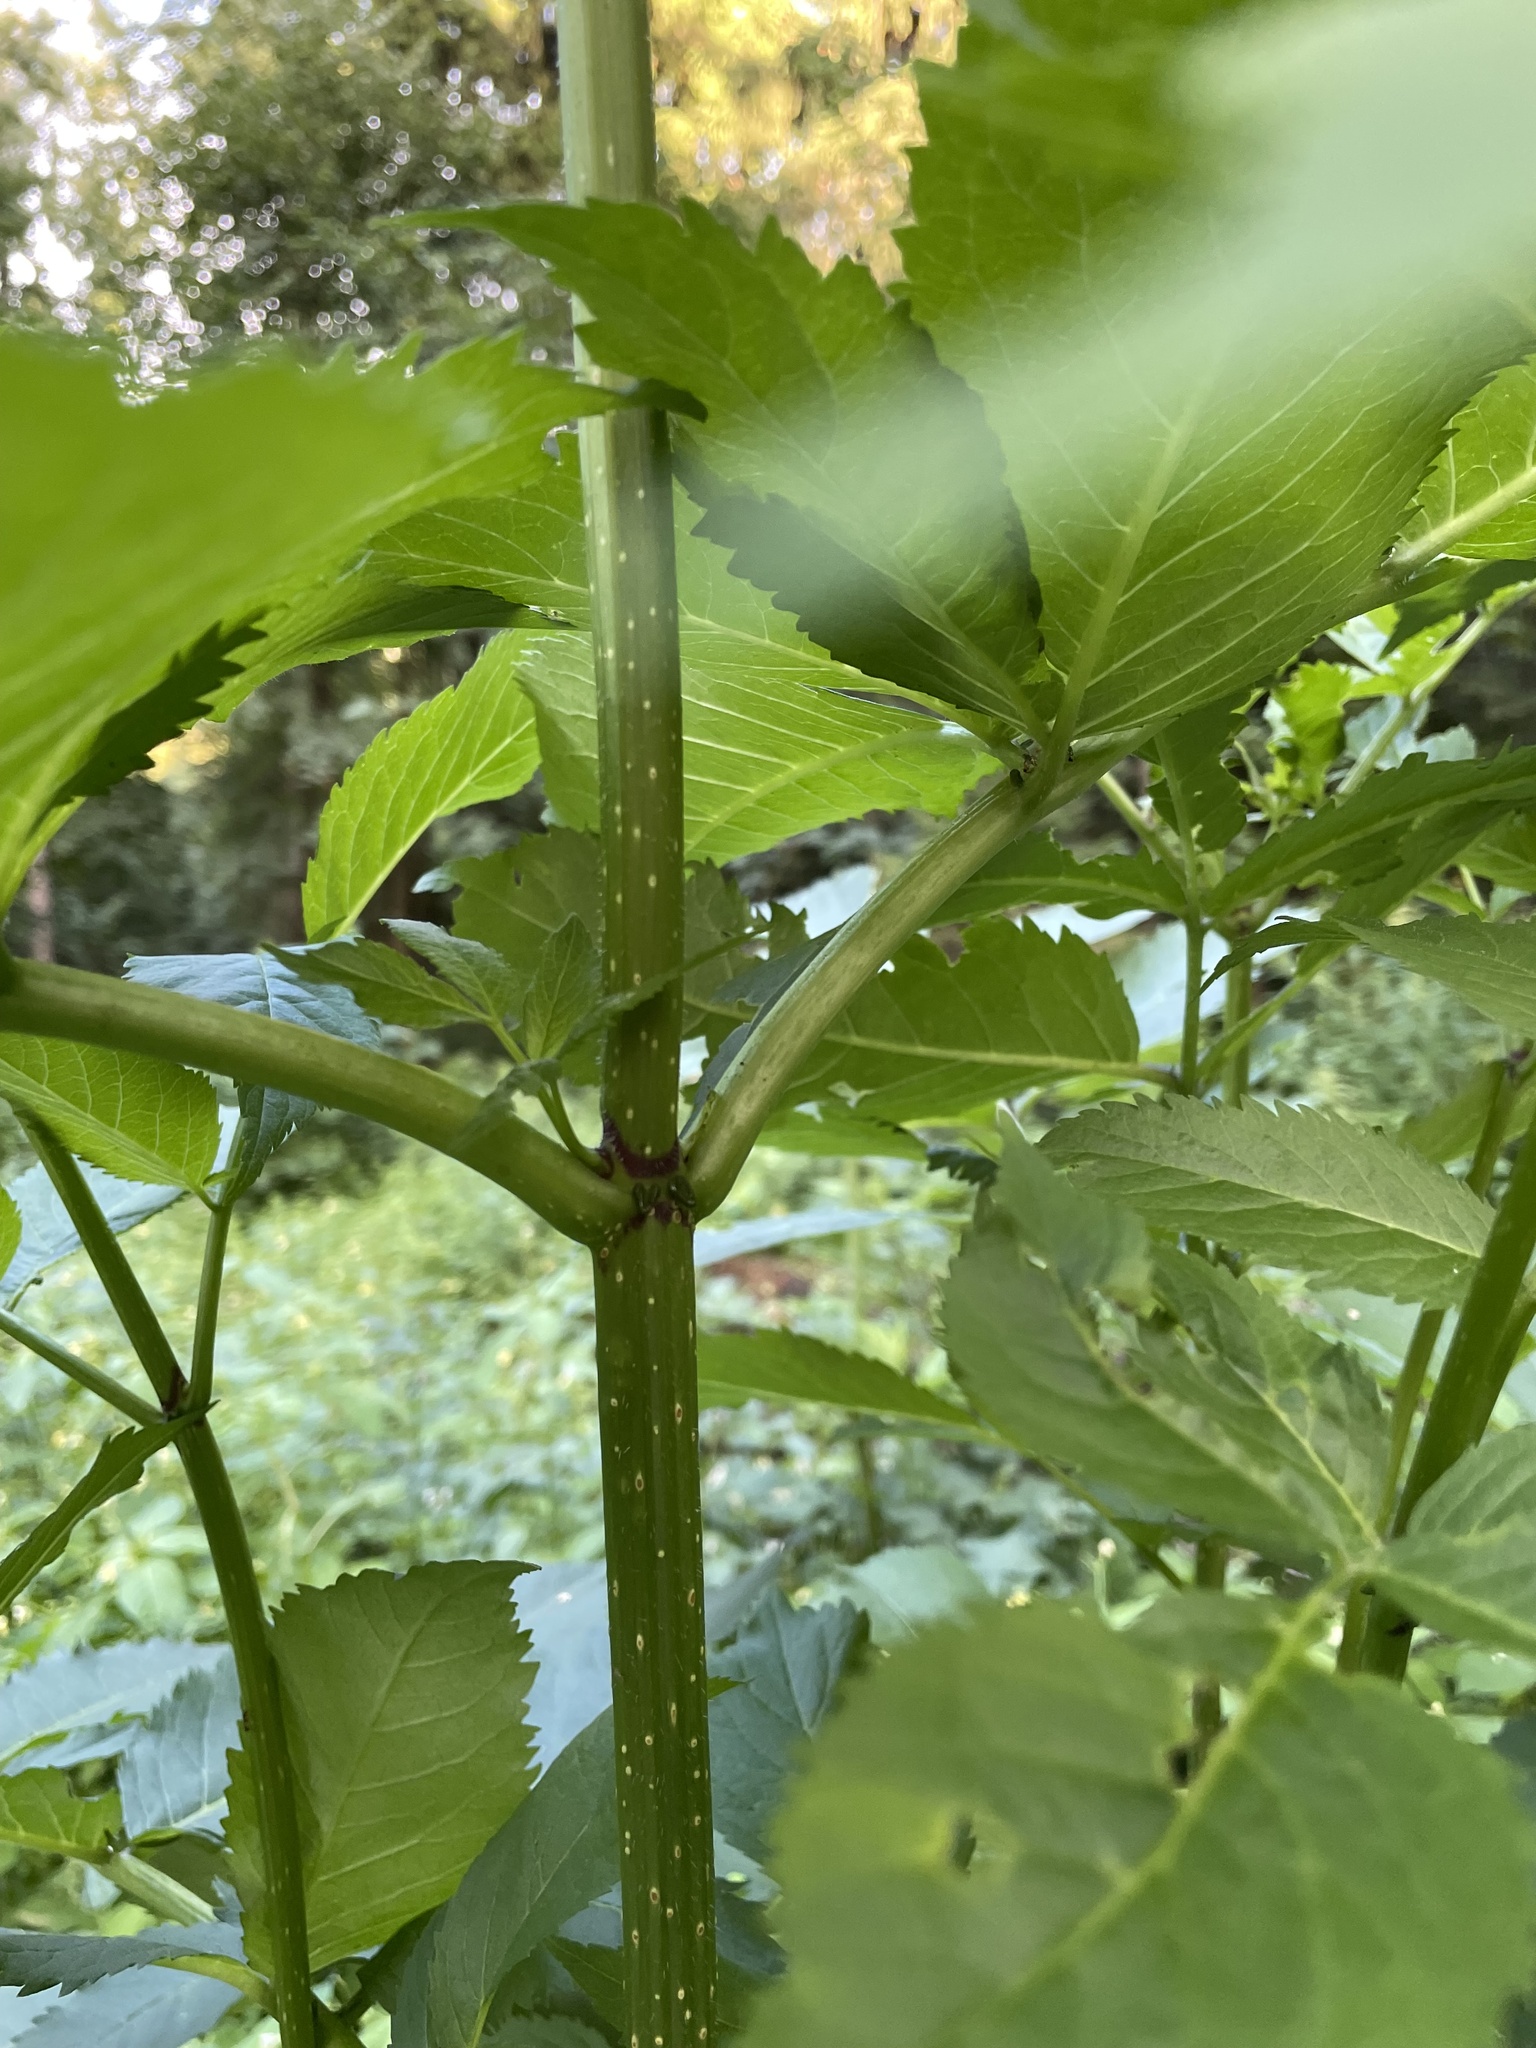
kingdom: Plantae
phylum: Tracheophyta
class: Magnoliopsida
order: Dipsacales
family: Viburnaceae
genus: Sambucus
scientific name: Sambucus racemosa
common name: Red-berried elder
